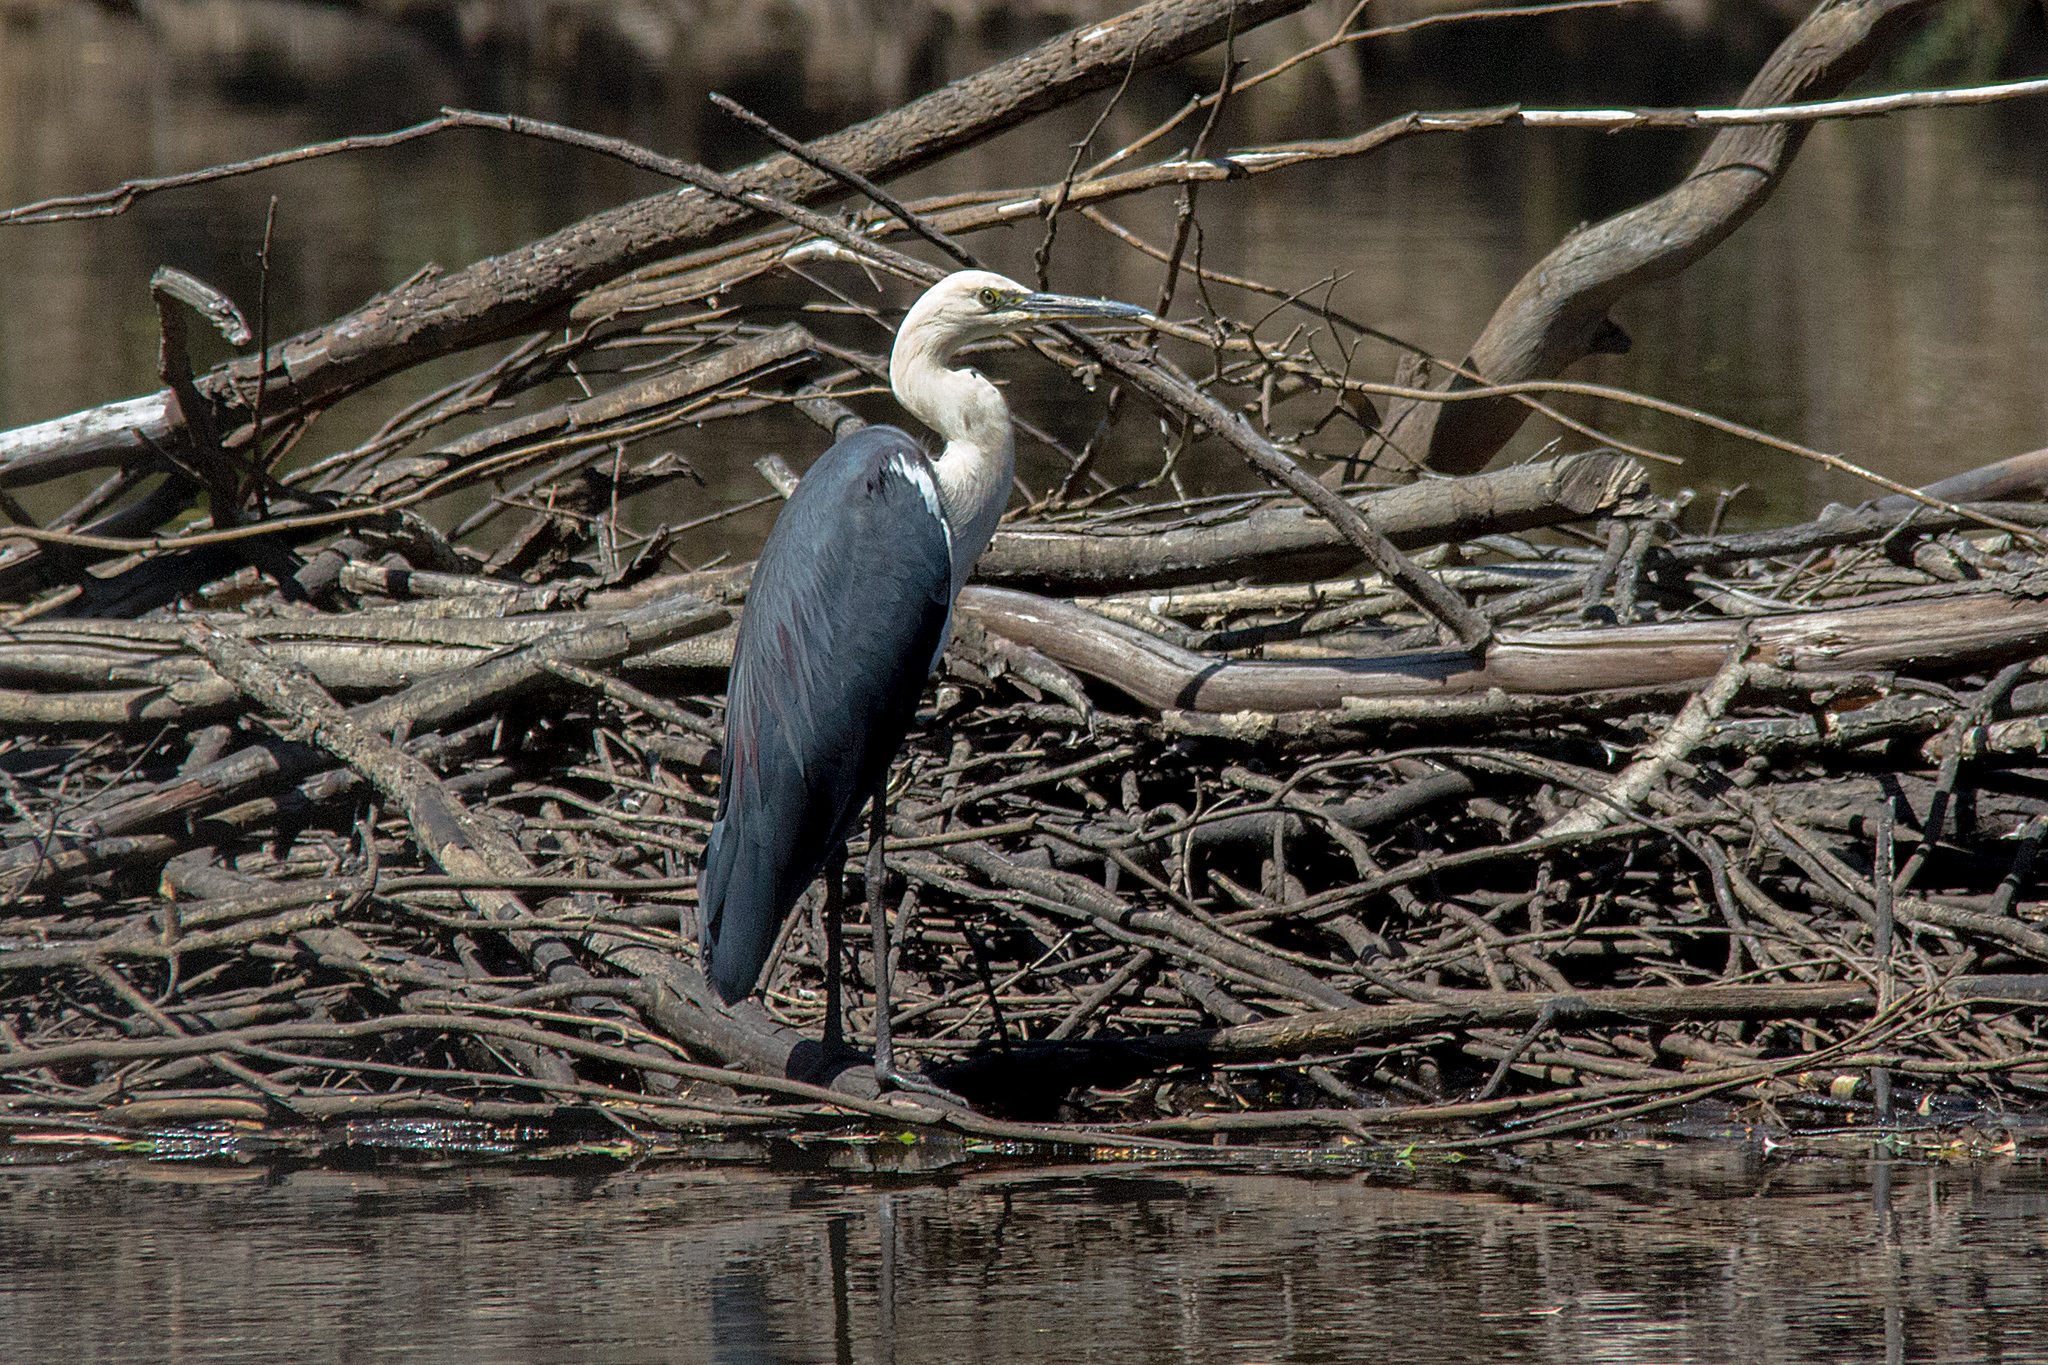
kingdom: Animalia
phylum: Chordata
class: Aves
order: Pelecaniformes
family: Ardeidae
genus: Ardea
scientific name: Ardea pacifica
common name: White-necked heron
